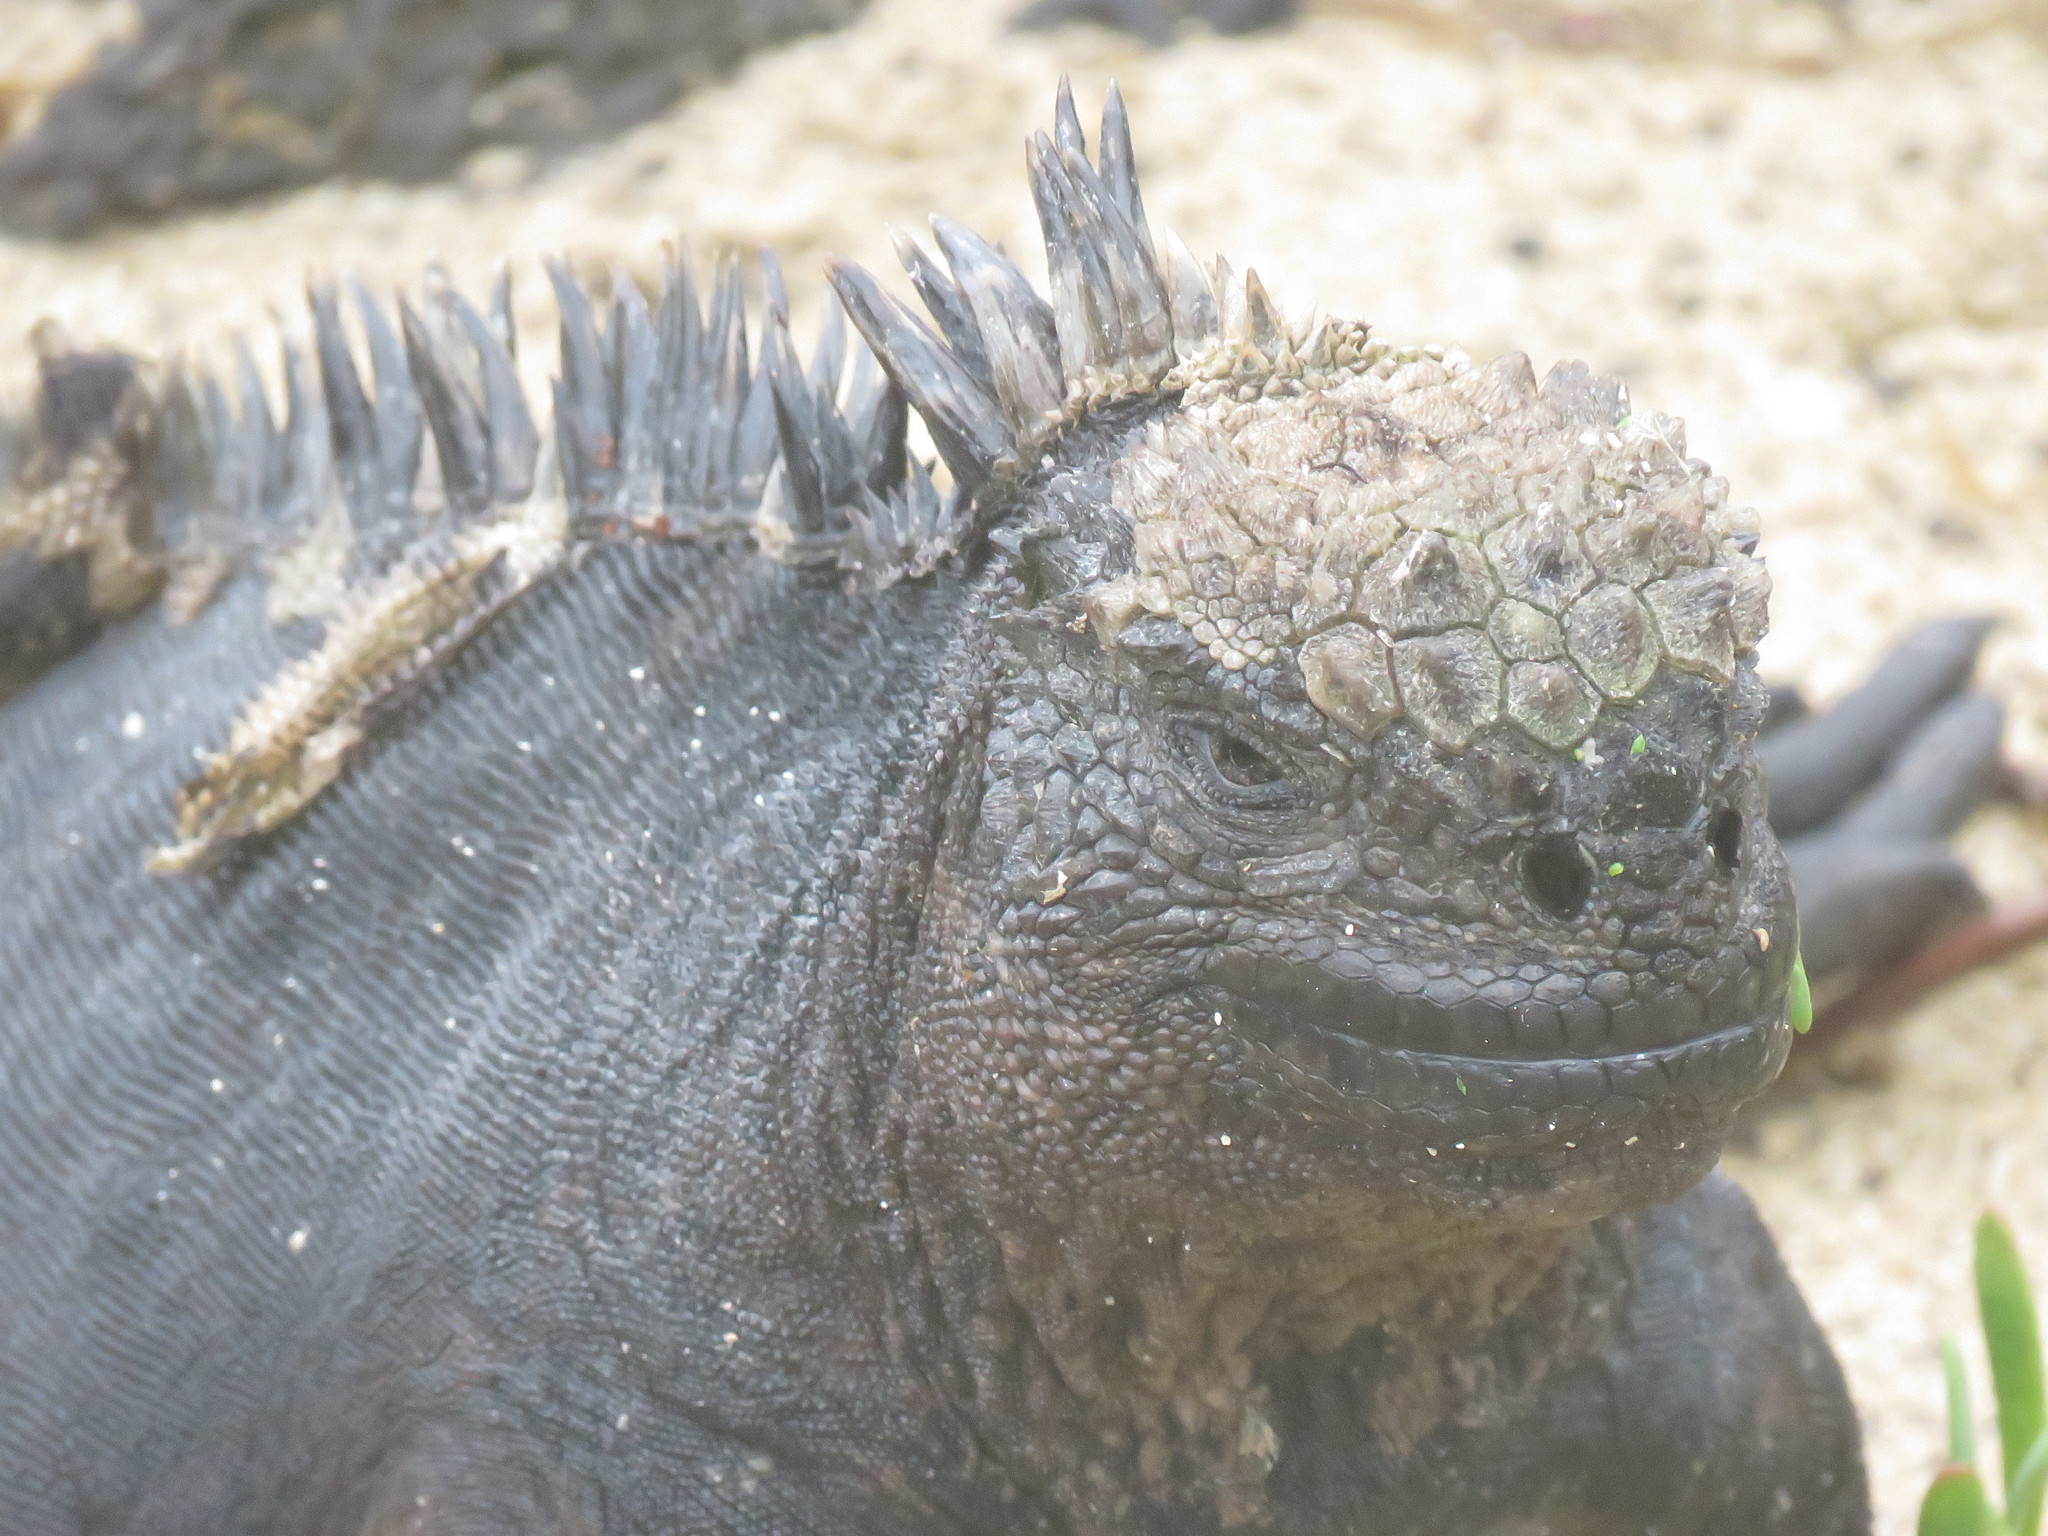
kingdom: Animalia
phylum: Chordata
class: Squamata
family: Iguanidae
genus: Amblyrhynchus
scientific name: Amblyrhynchus cristatus
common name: Marine iguana
